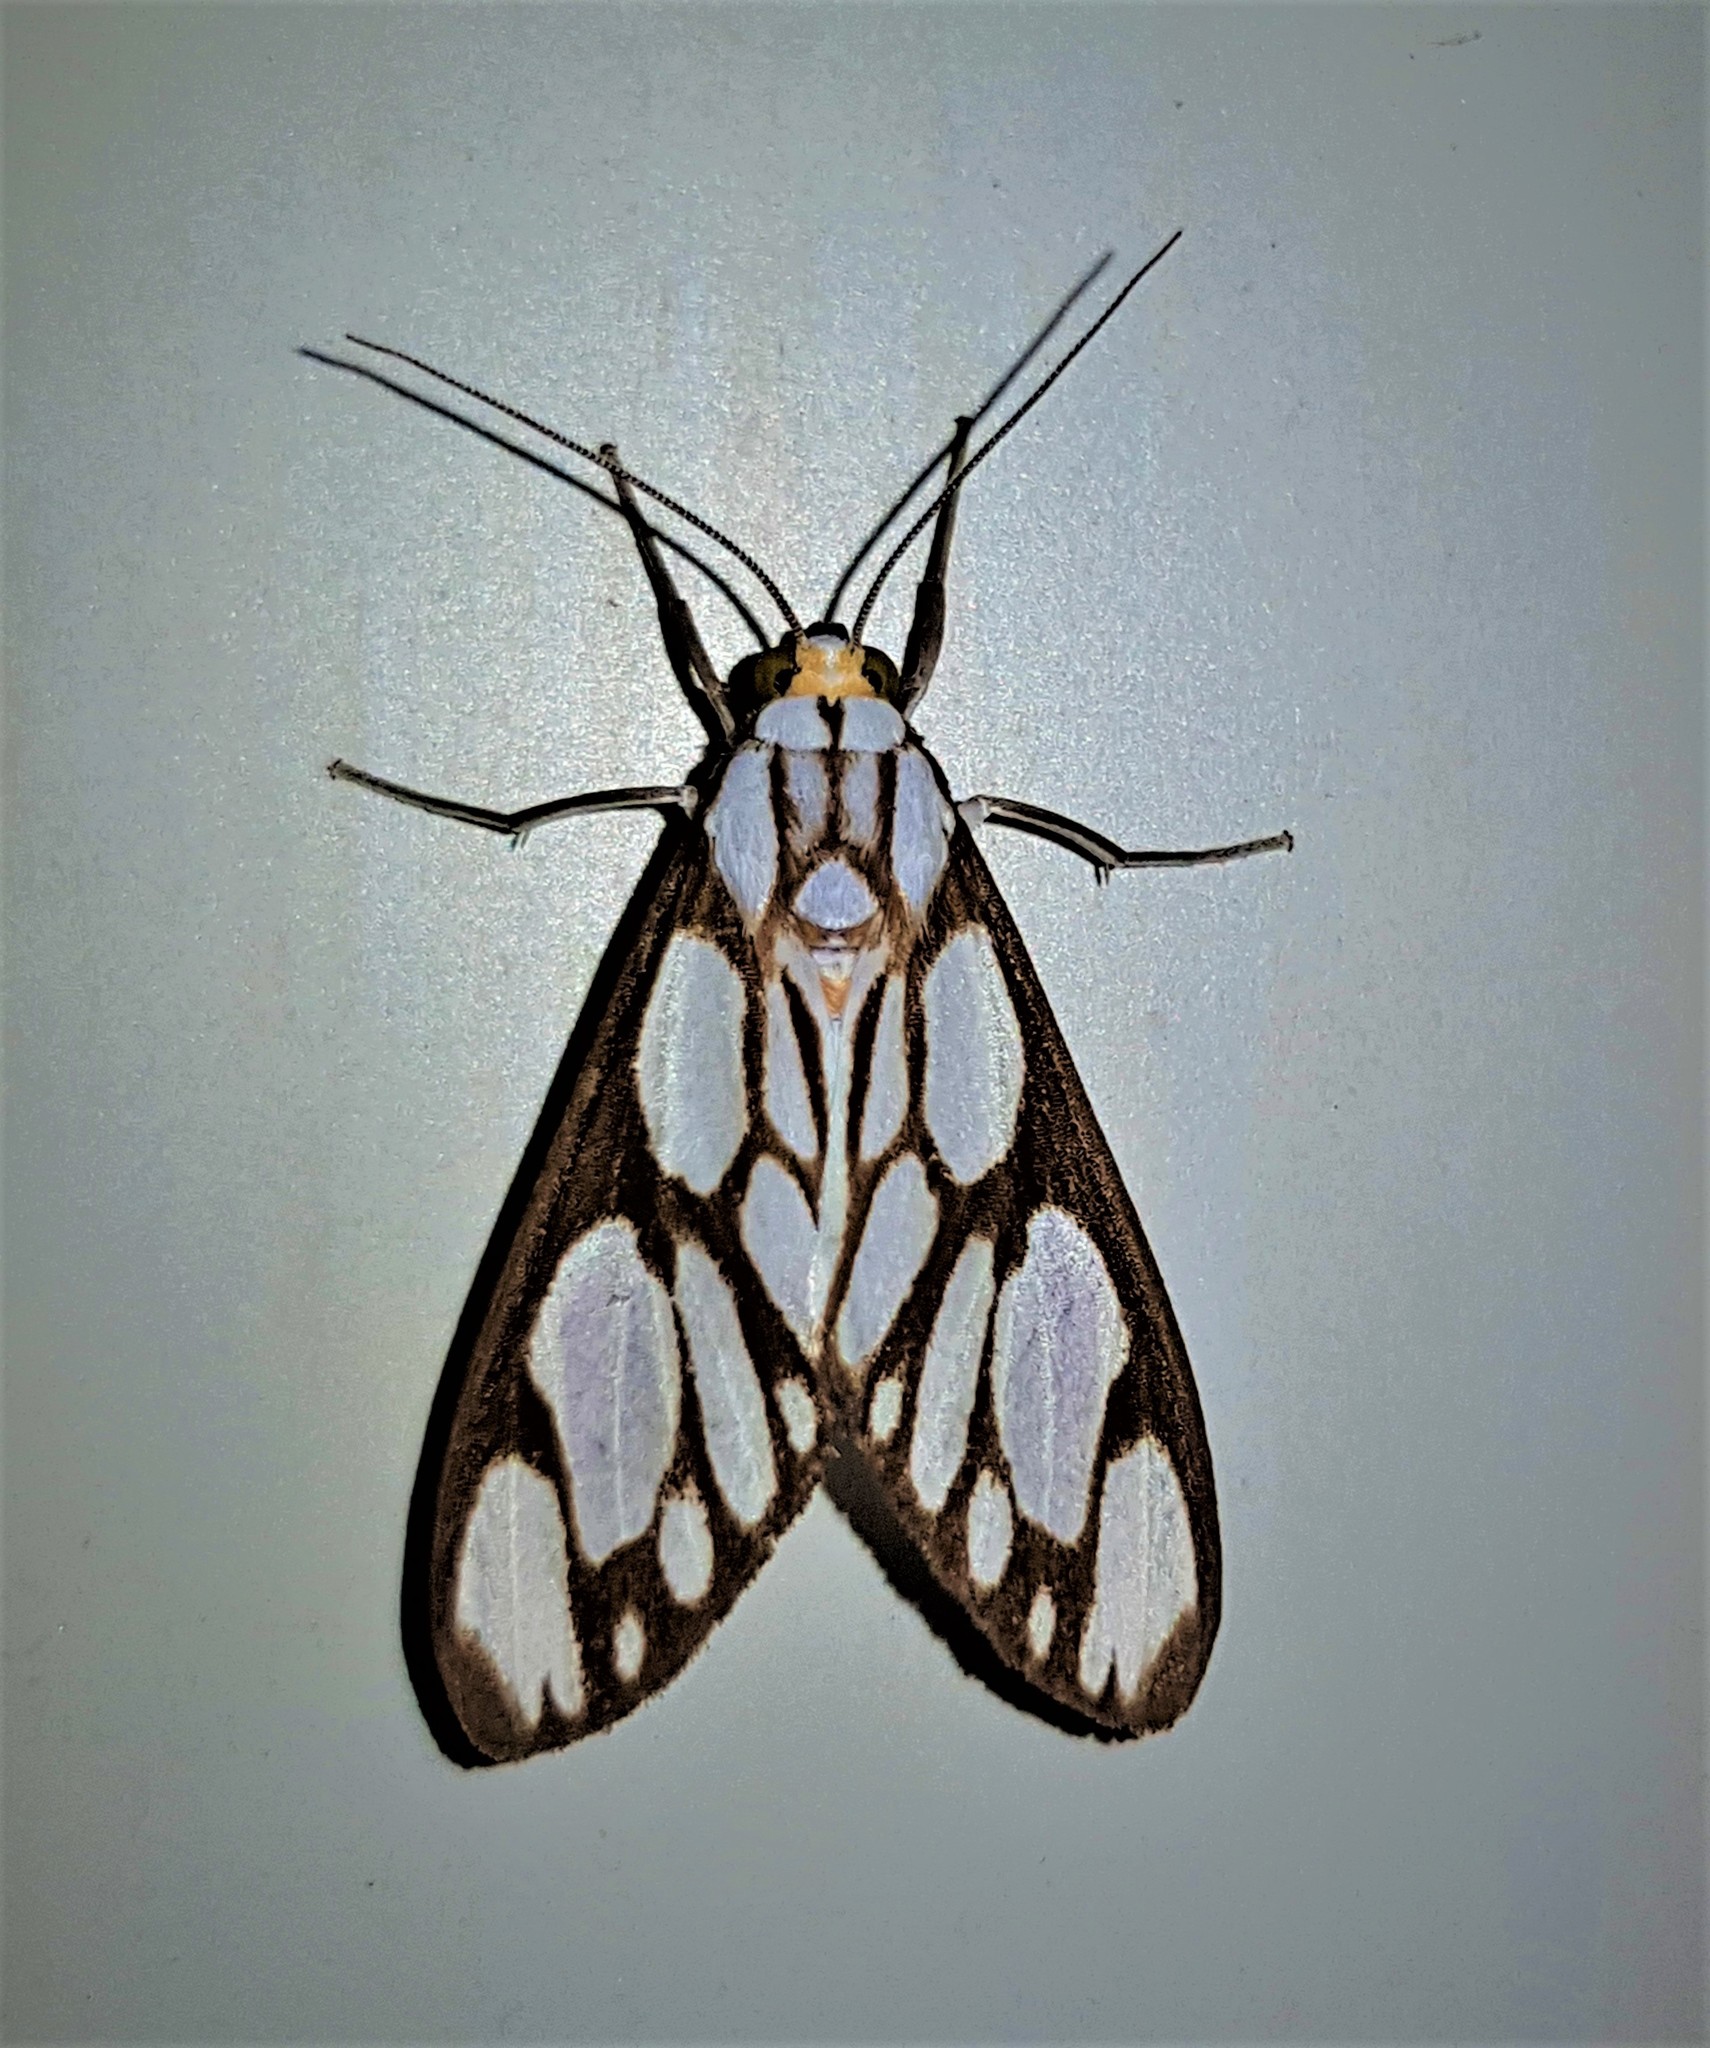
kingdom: Animalia
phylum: Arthropoda
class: Insecta
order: Lepidoptera
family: Erebidae
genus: Robinsonia
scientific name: Robinsonia sanea
